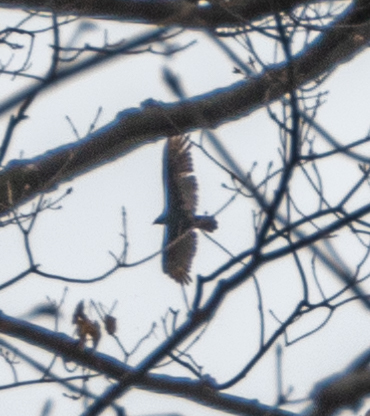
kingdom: Animalia
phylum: Chordata
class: Aves
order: Accipitriformes
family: Cathartidae
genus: Cathartes
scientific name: Cathartes aura
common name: Turkey vulture
